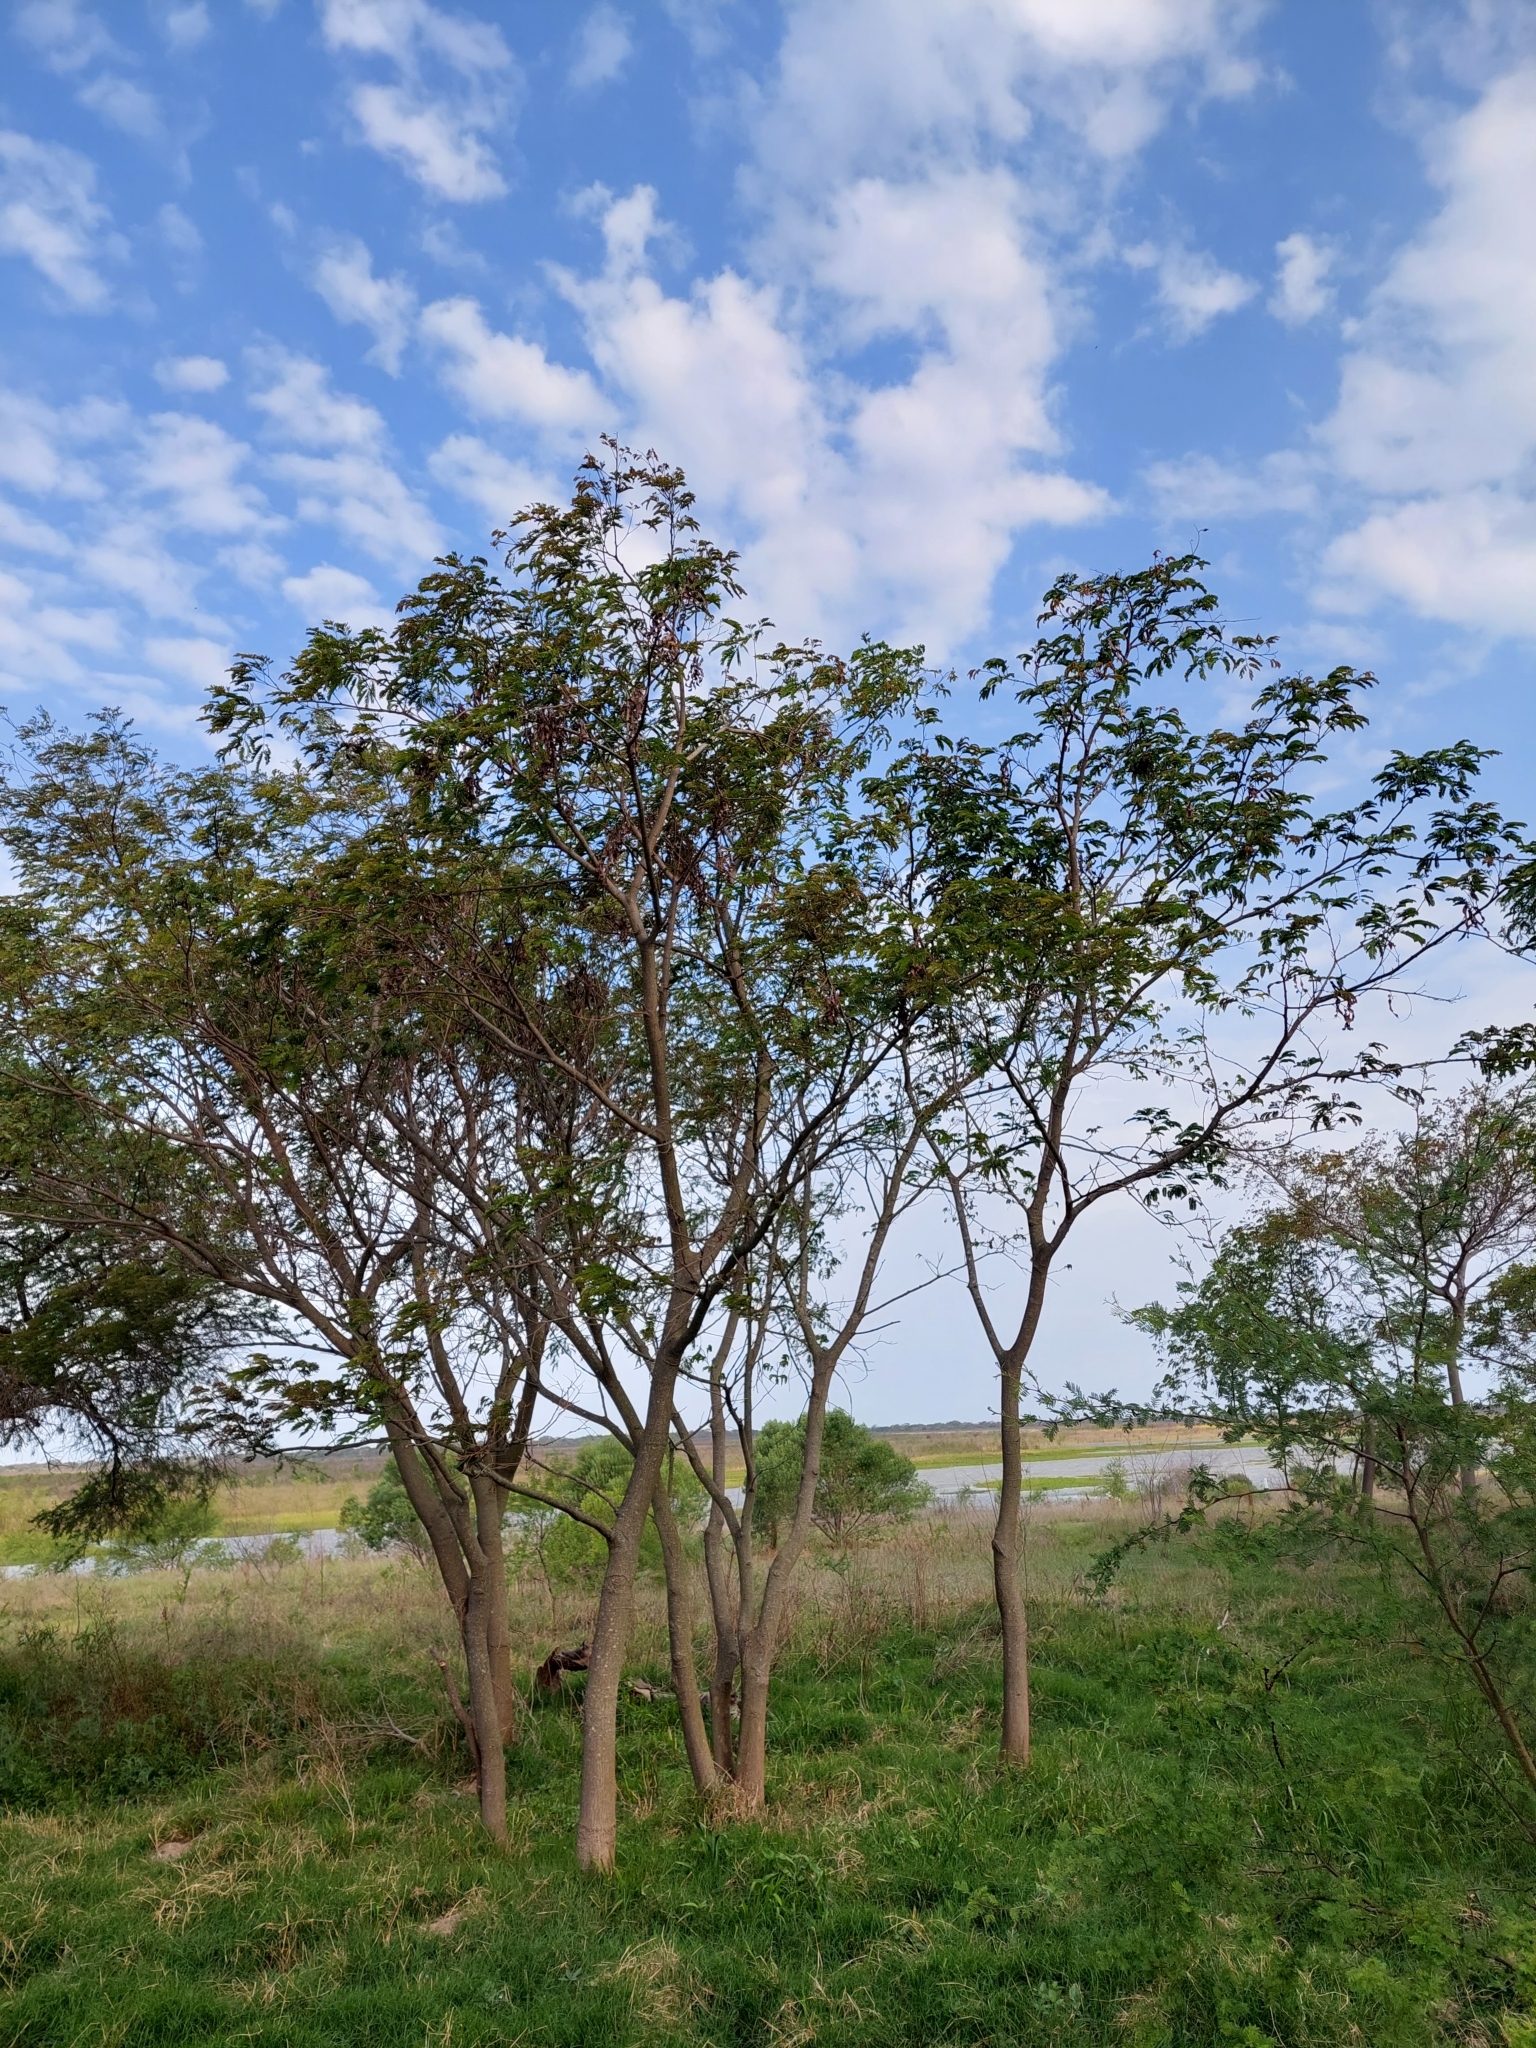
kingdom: Plantae
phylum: Tracheophyta
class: Magnoliopsida
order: Fabales
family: Fabaceae
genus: Albizia
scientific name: Albizia inundata
